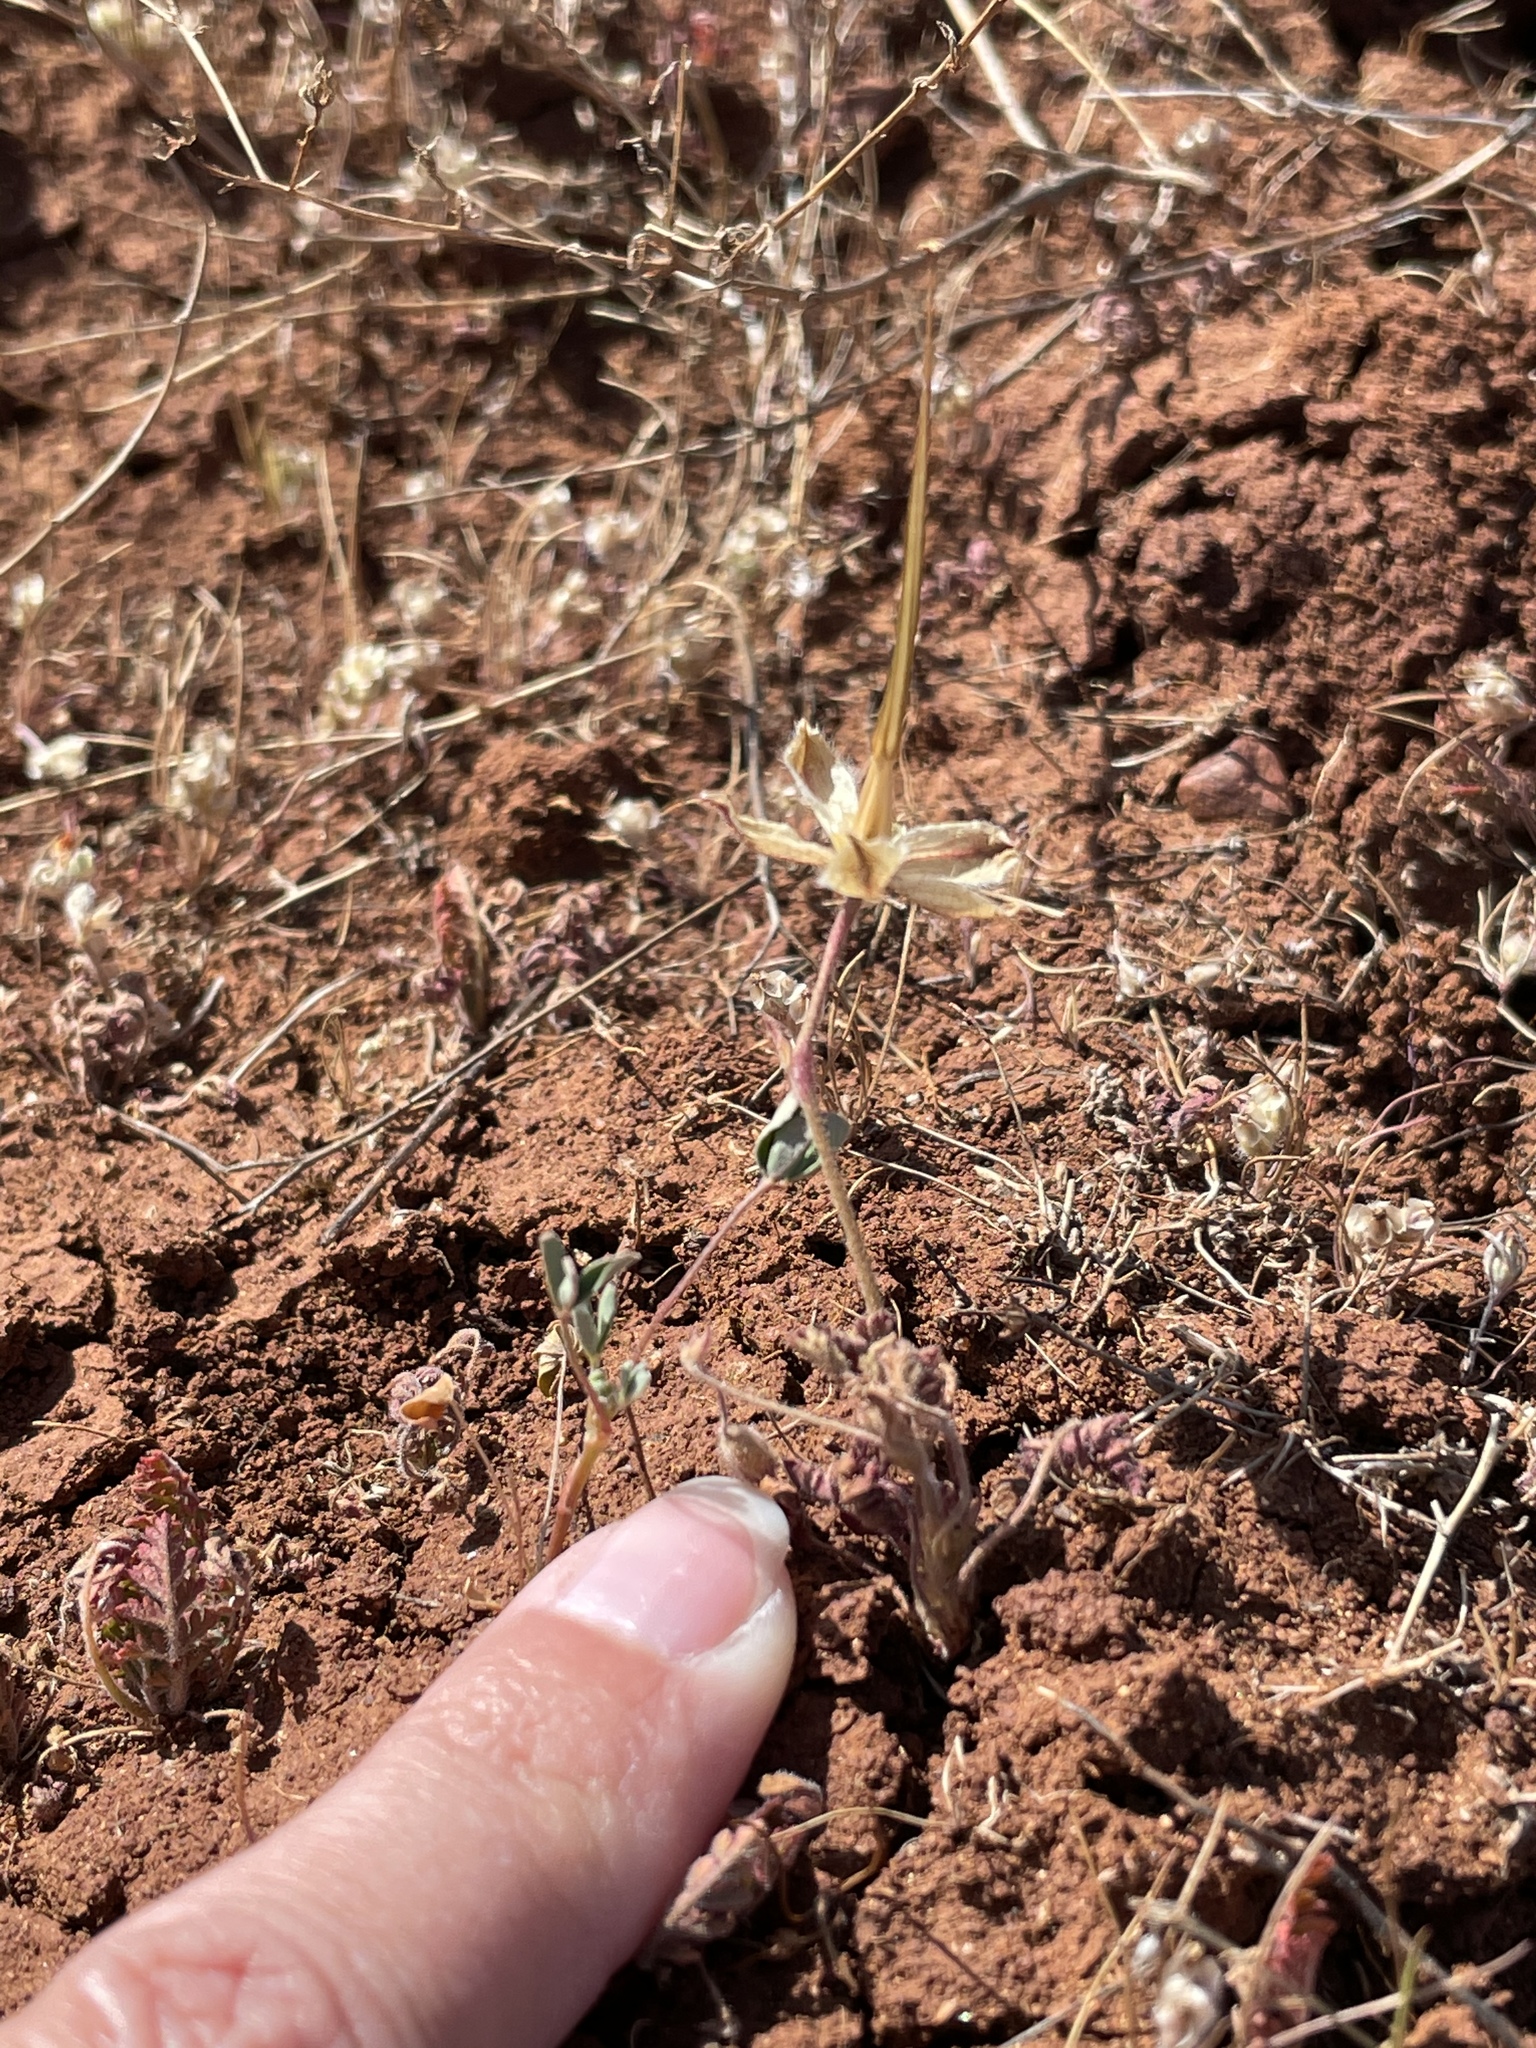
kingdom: Plantae
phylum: Tracheophyta
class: Magnoliopsida
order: Geraniales
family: Geraniaceae
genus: California
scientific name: California macrophylla
